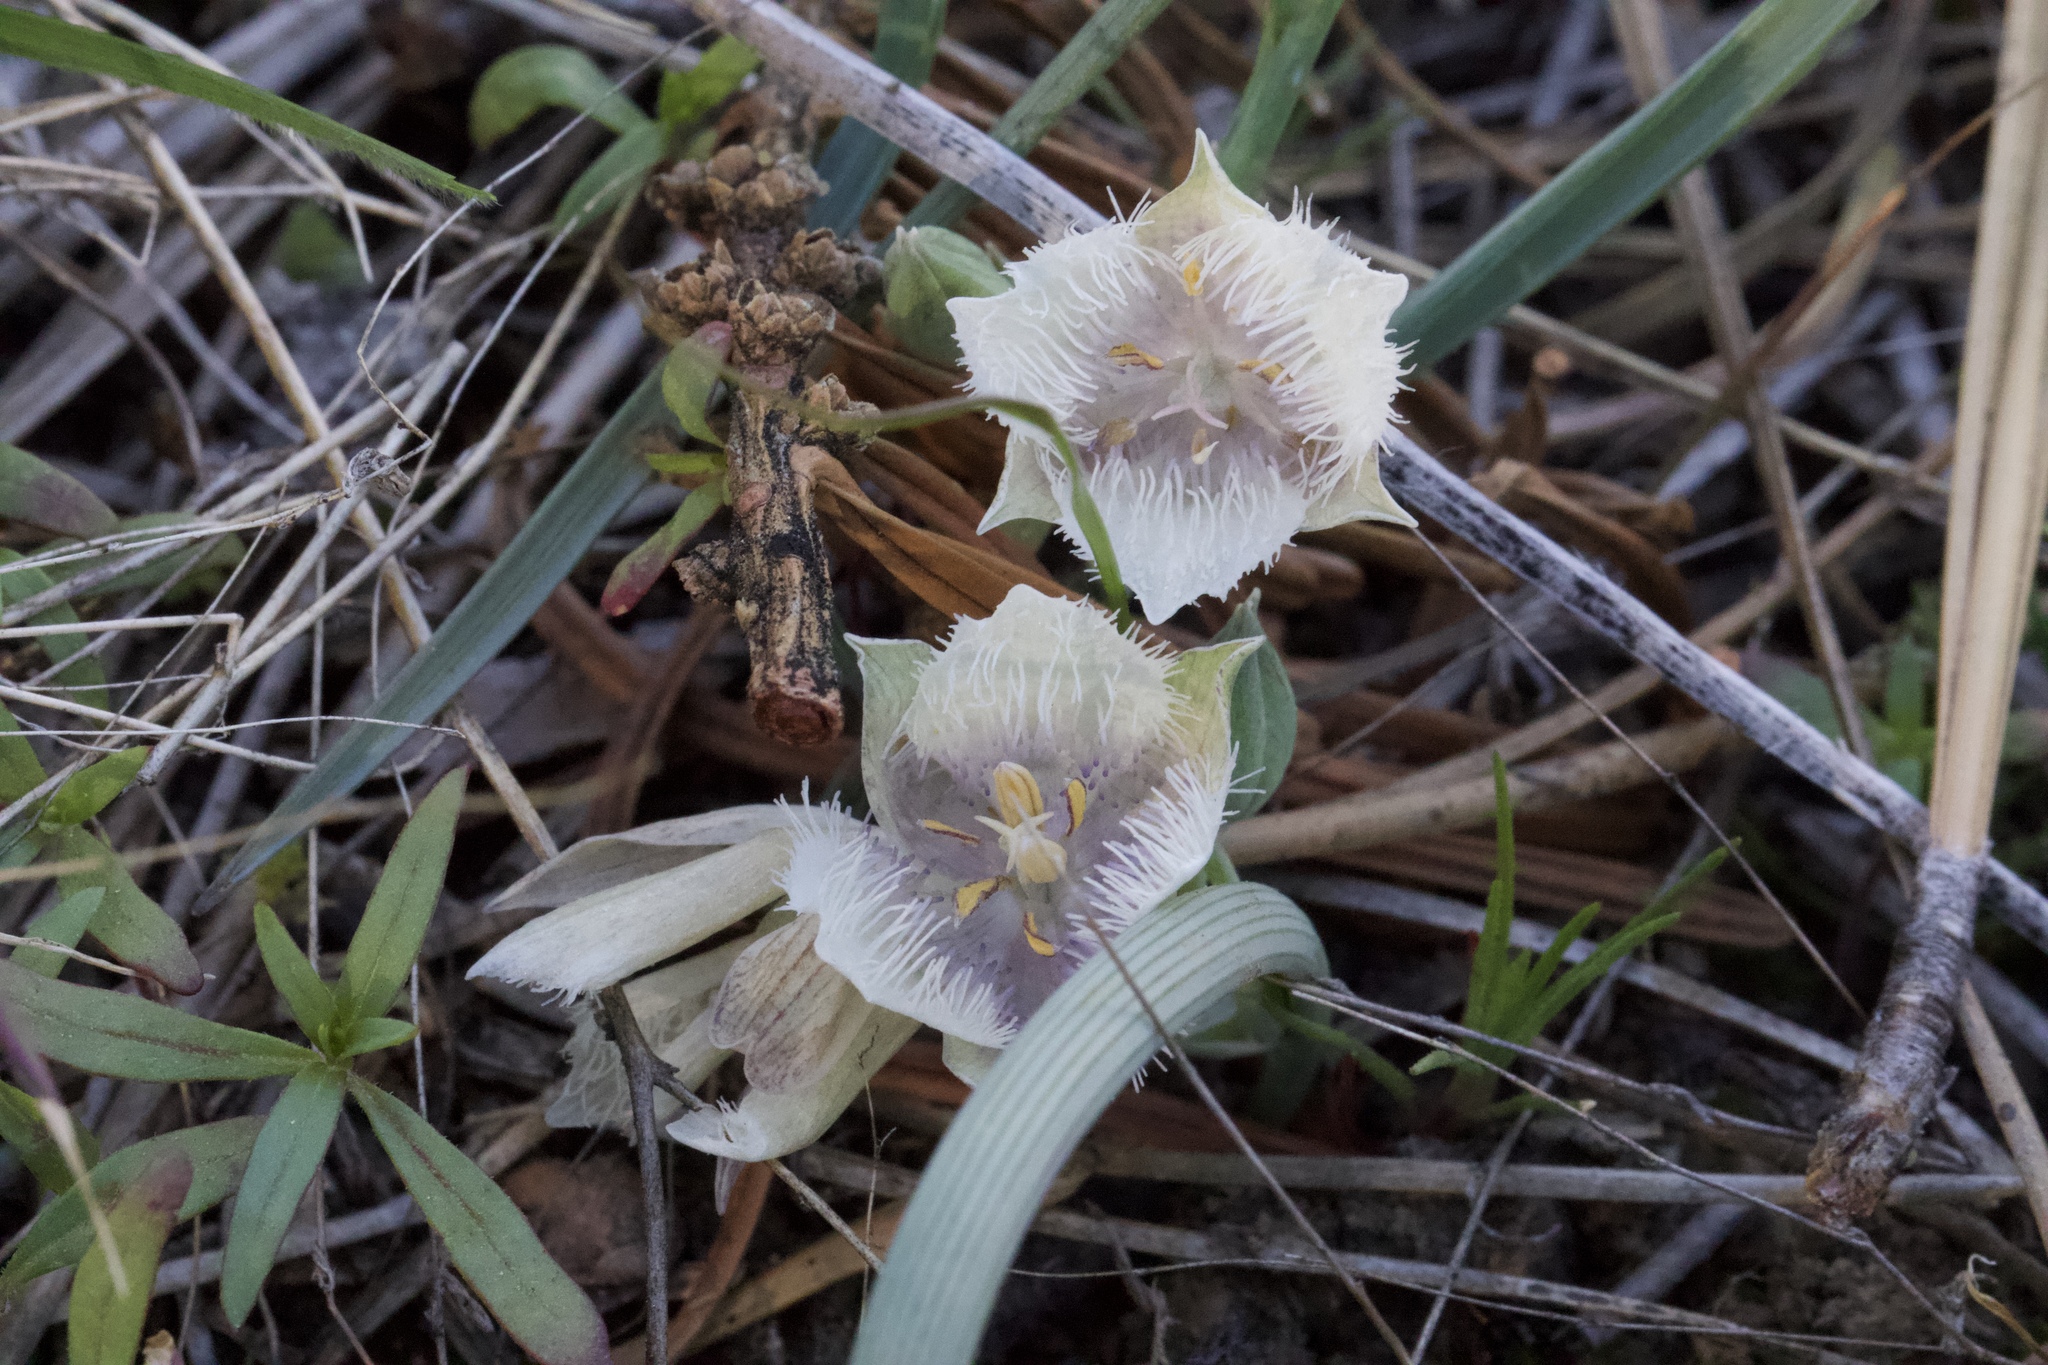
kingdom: Plantae
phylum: Tracheophyta
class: Liliopsida
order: Liliales
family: Liliaceae
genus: Calochortus
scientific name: Calochortus coeruleus
